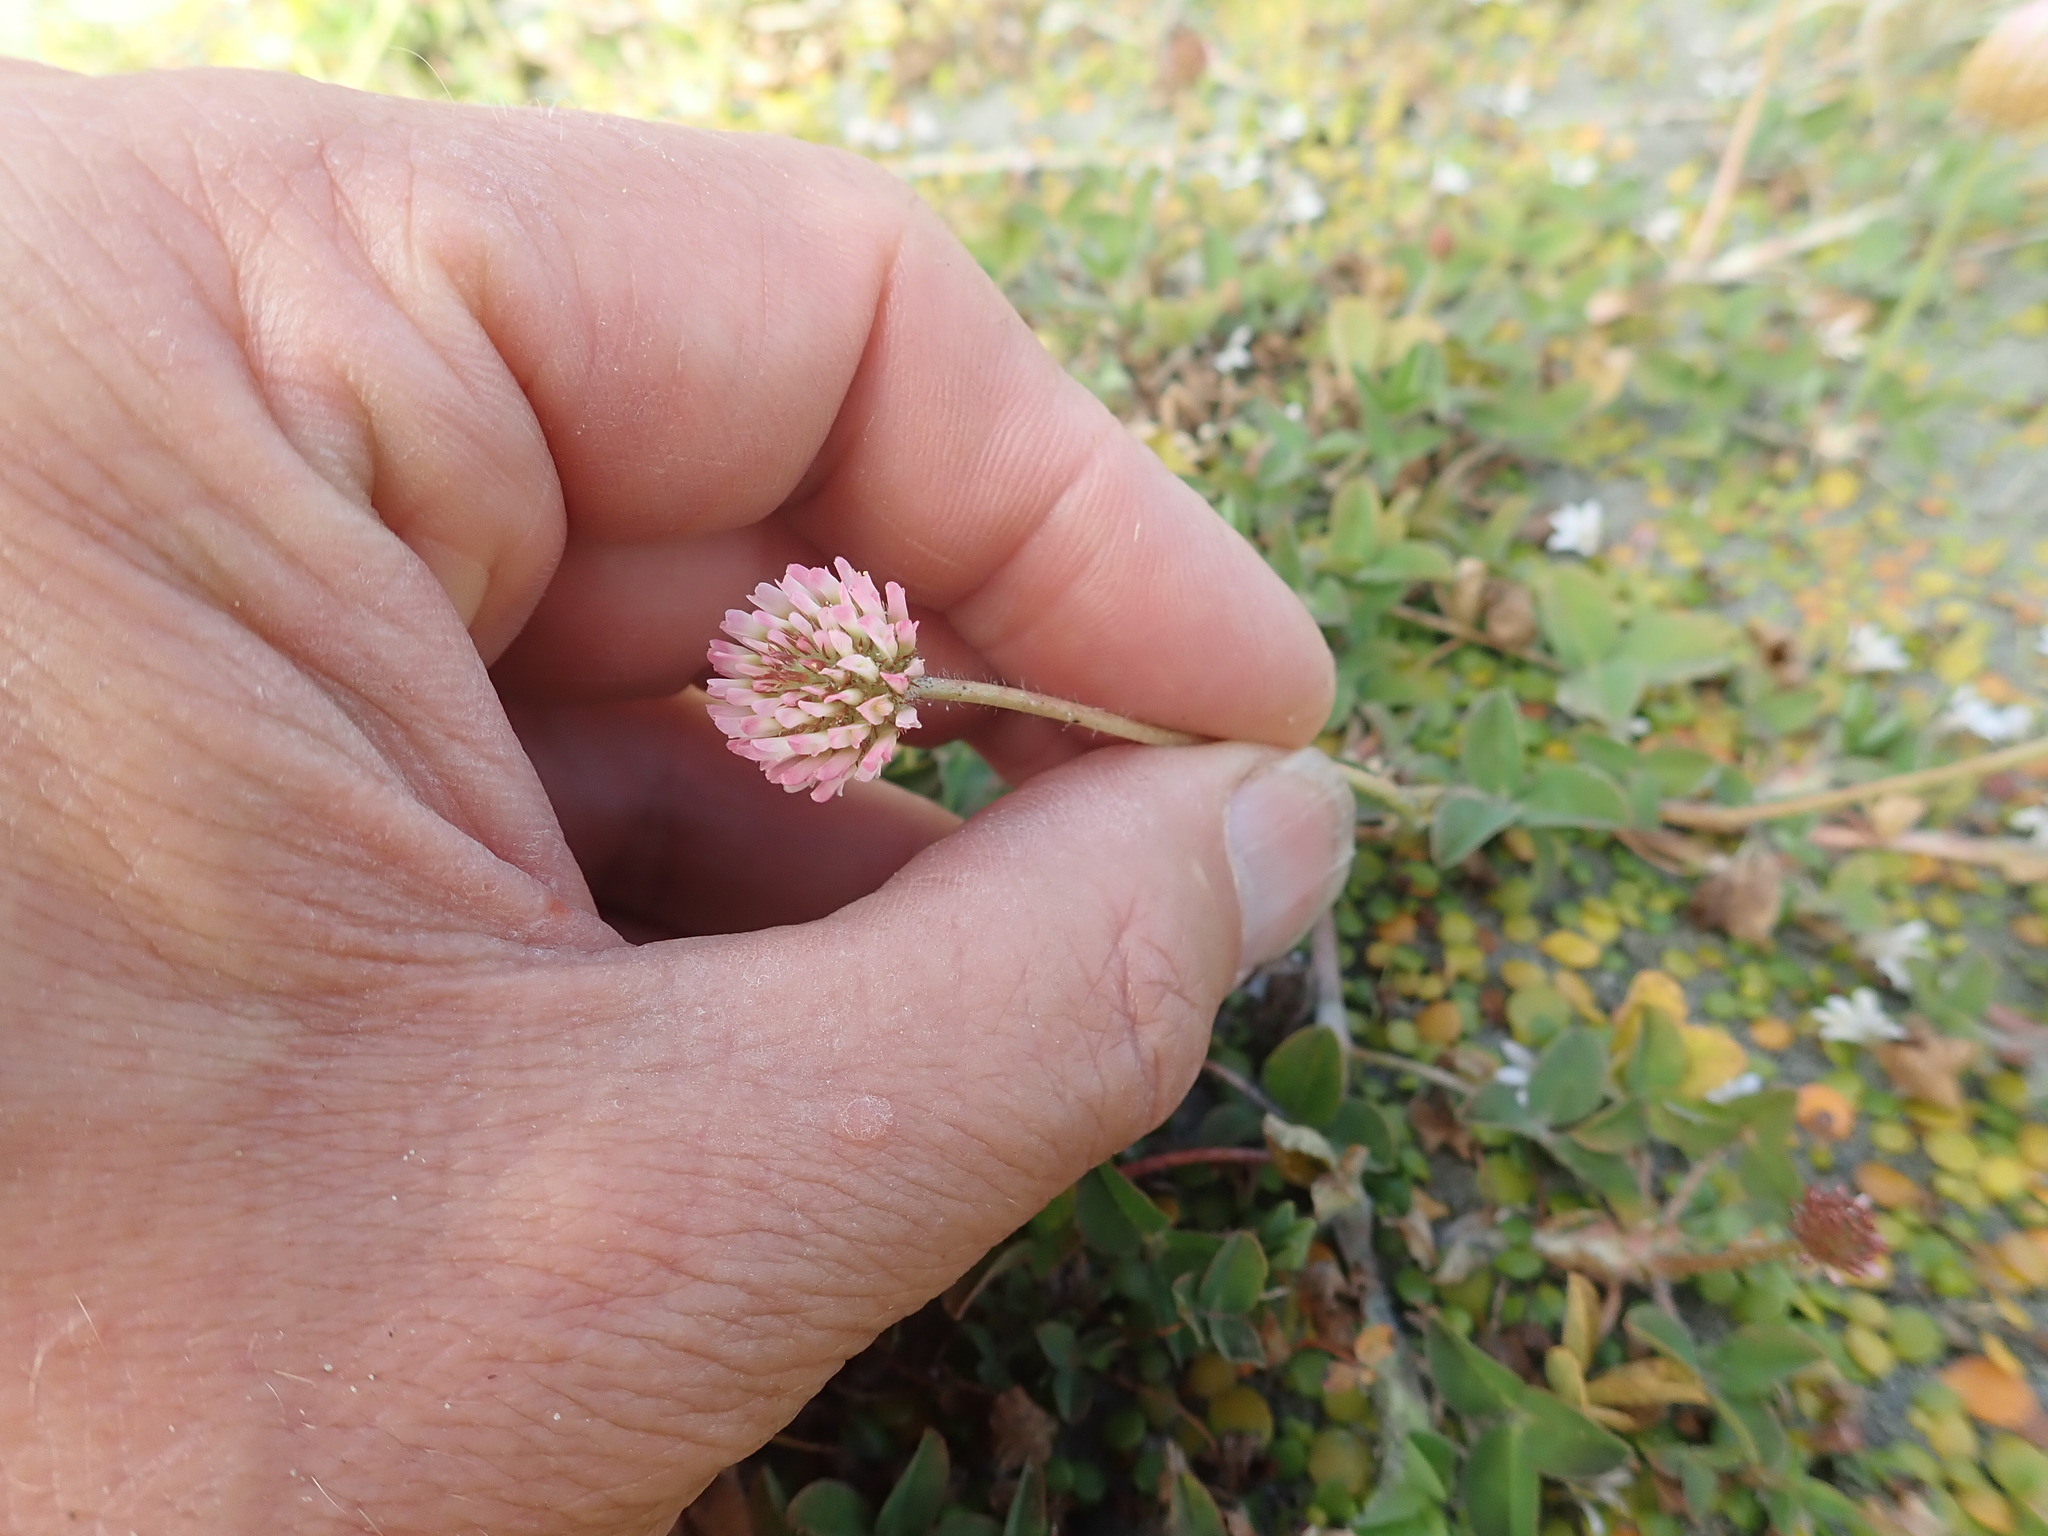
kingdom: Plantae
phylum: Tracheophyta
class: Magnoliopsida
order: Fabales
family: Fabaceae
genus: Trifolium
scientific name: Trifolium fragiferum
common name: Strawberry clover
